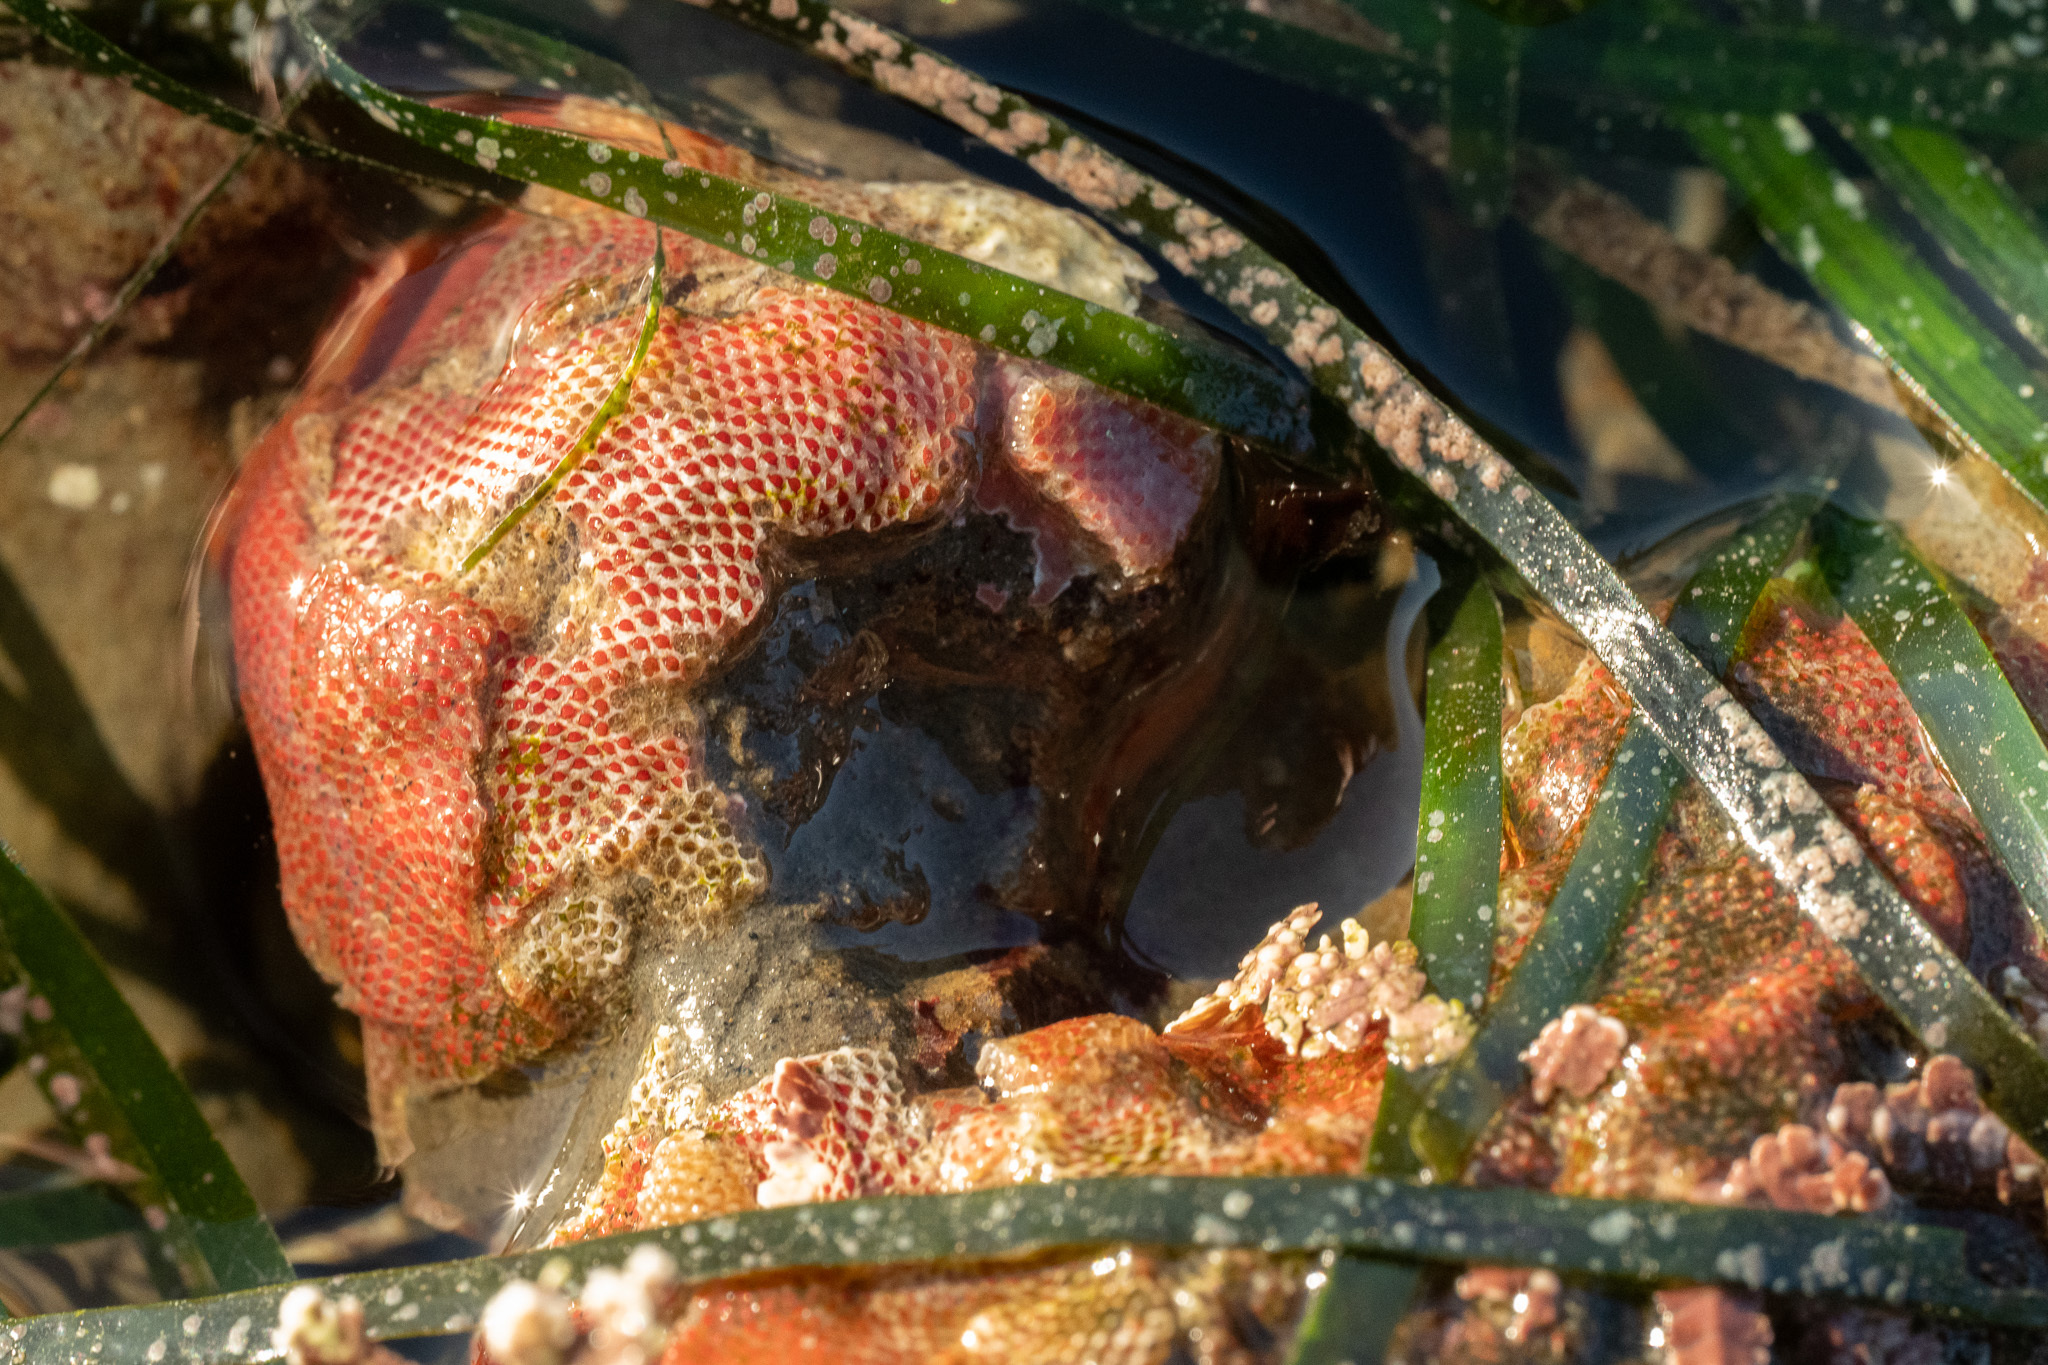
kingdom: Animalia
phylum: Bryozoa
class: Gymnolaemata
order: Cheilostomatida
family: Eurystomellidae
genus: Integripelta
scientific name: Integripelta bilabiata
